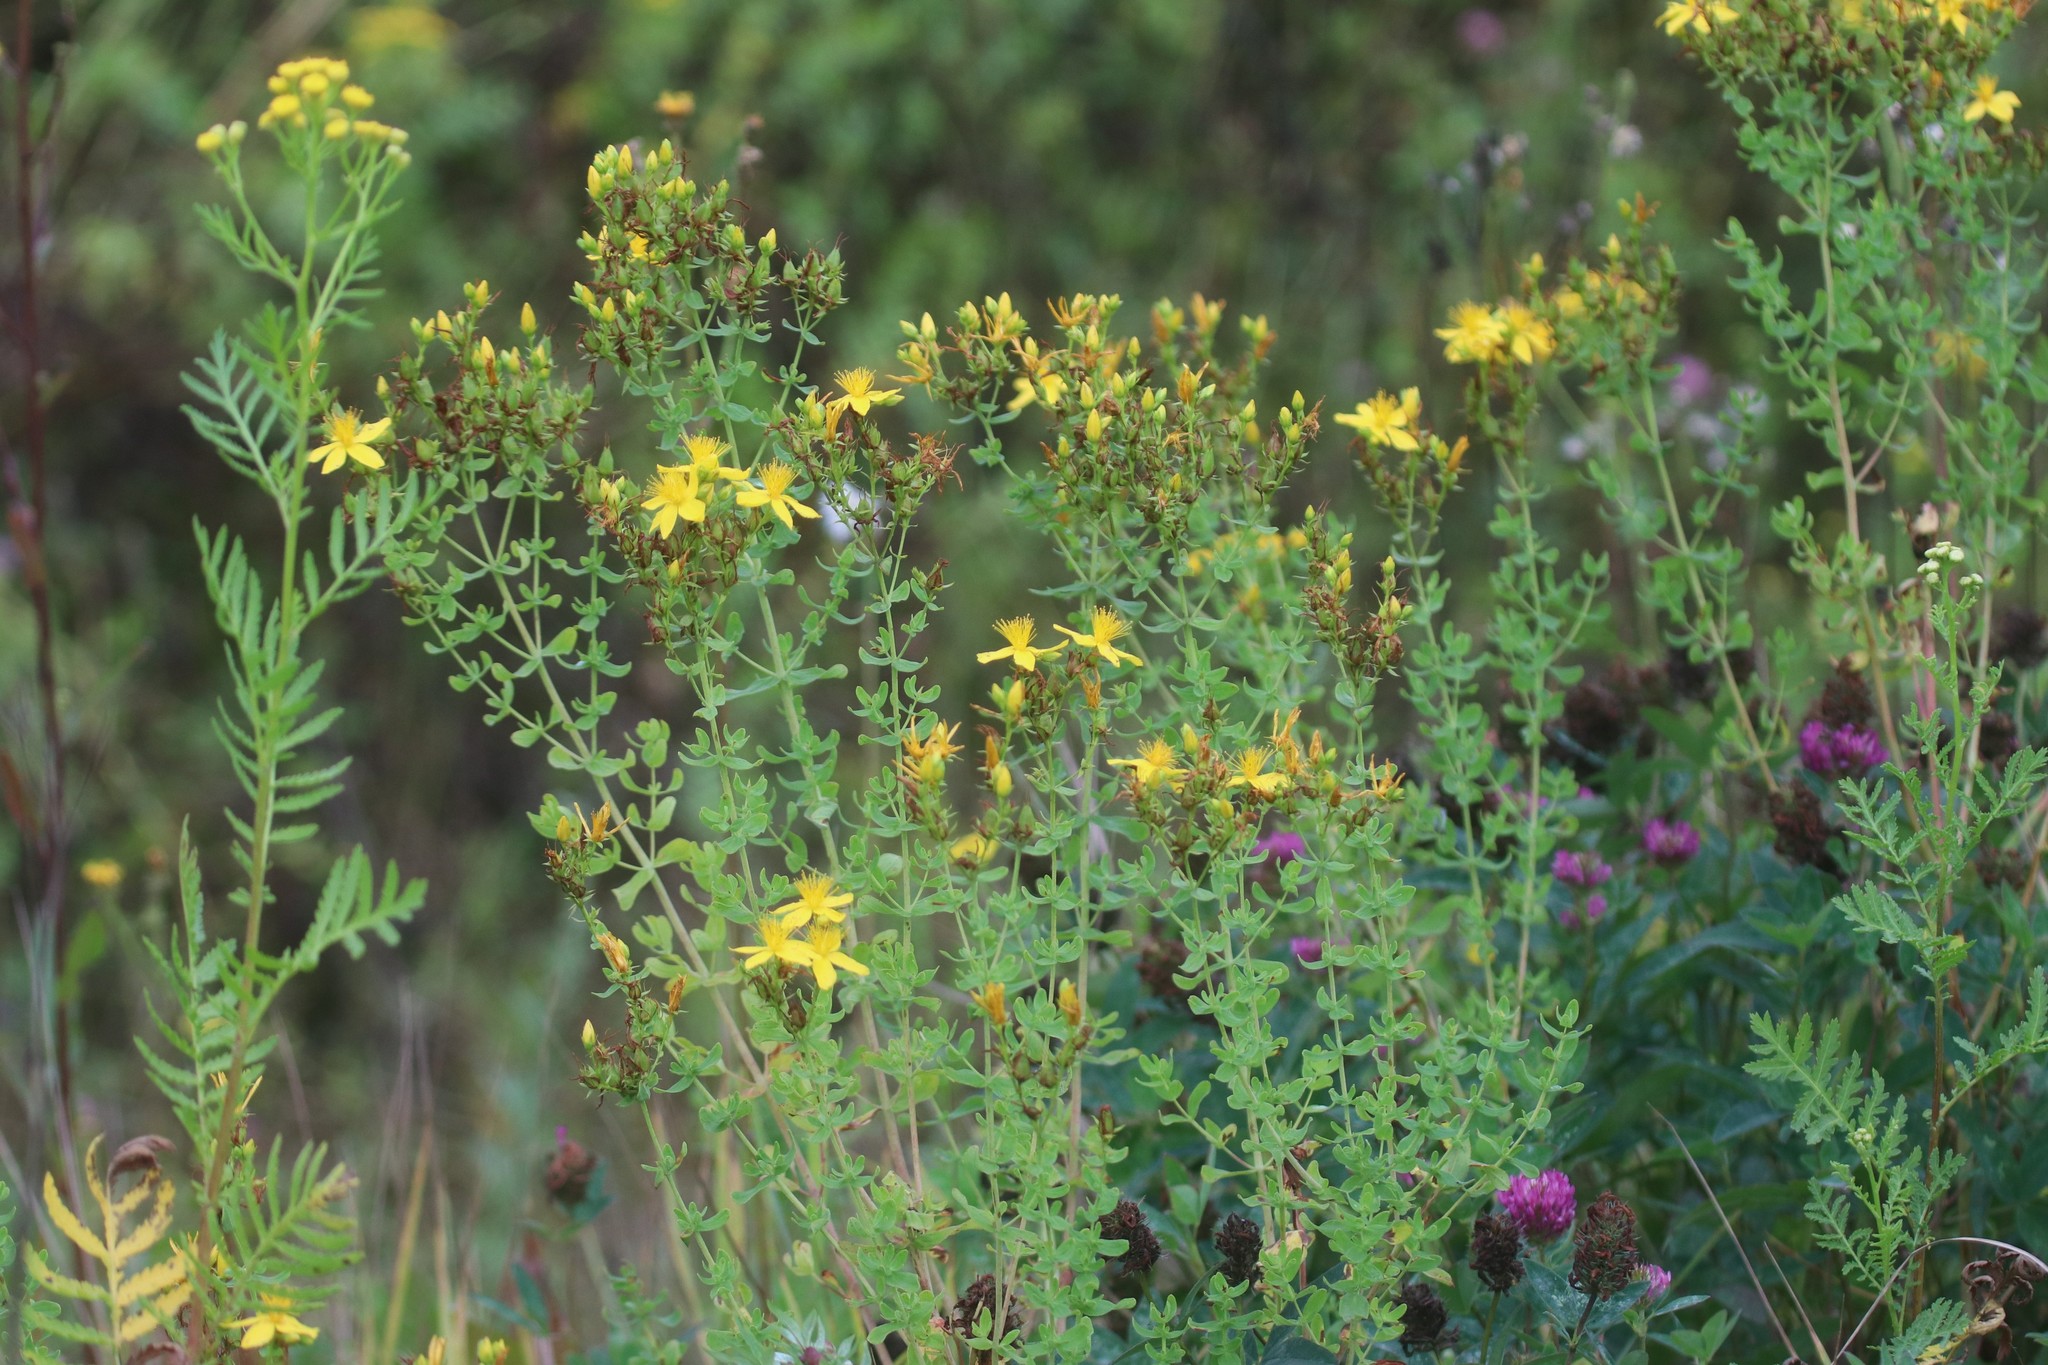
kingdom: Plantae
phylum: Tracheophyta
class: Magnoliopsida
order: Malpighiales
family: Hypericaceae
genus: Hypericum
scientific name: Hypericum perforatum
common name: Common st. johnswort
